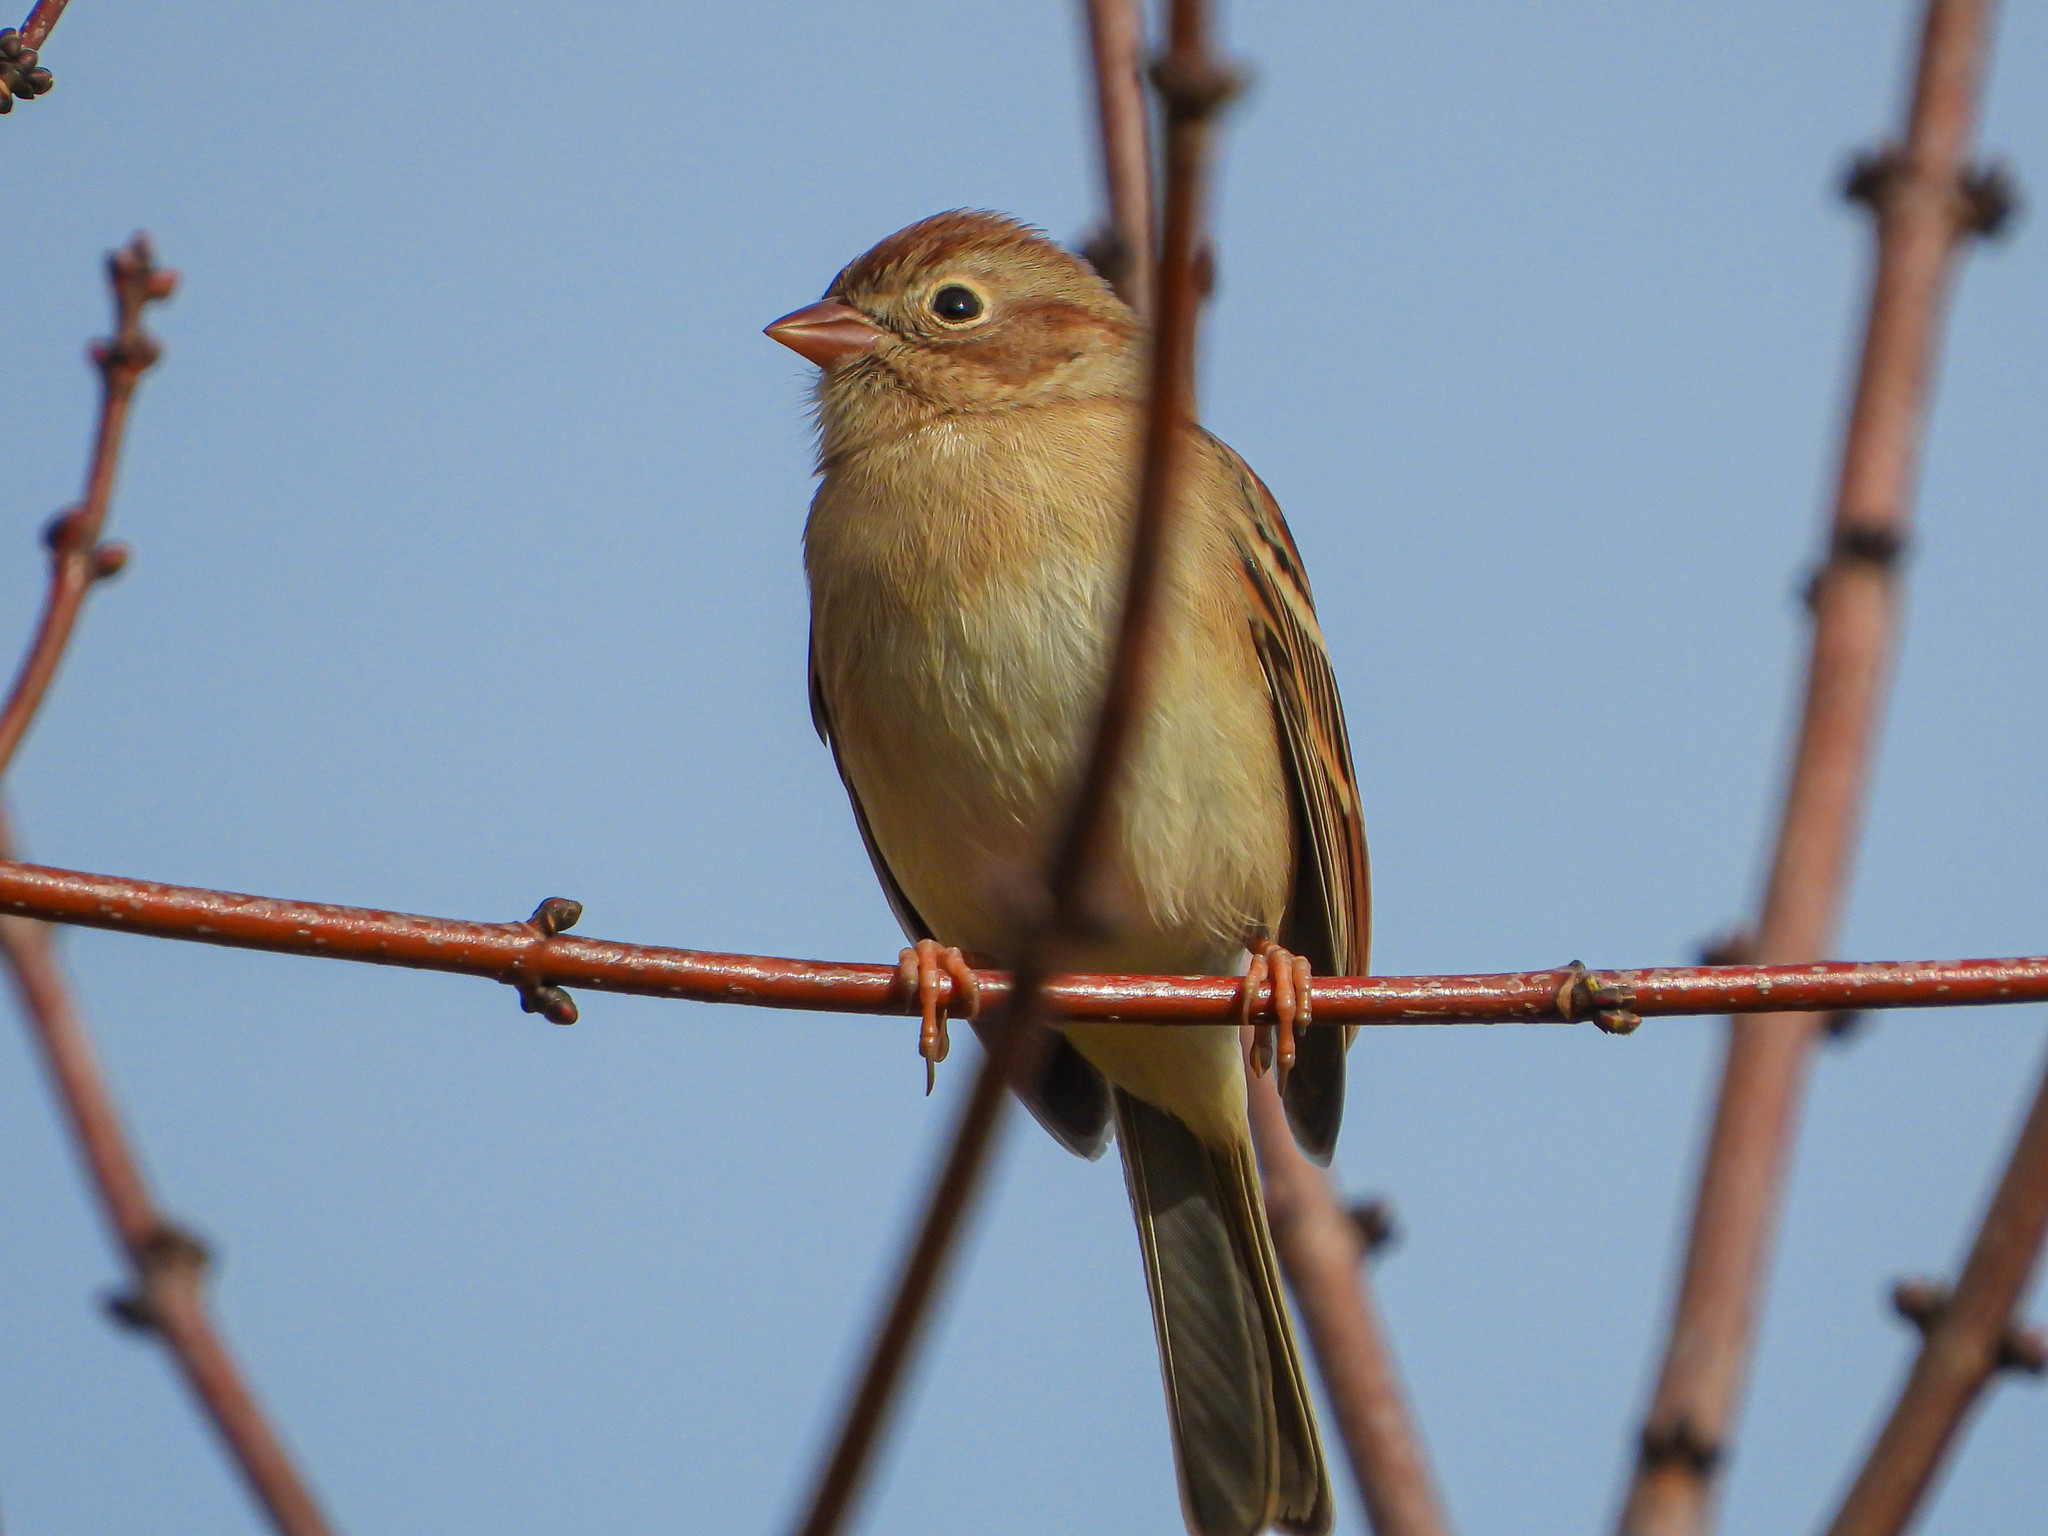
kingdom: Animalia
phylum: Chordata
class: Aves
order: Passeriformes
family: Passerellidae
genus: Spizella
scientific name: Spizella pusilla
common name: Field sparrow
